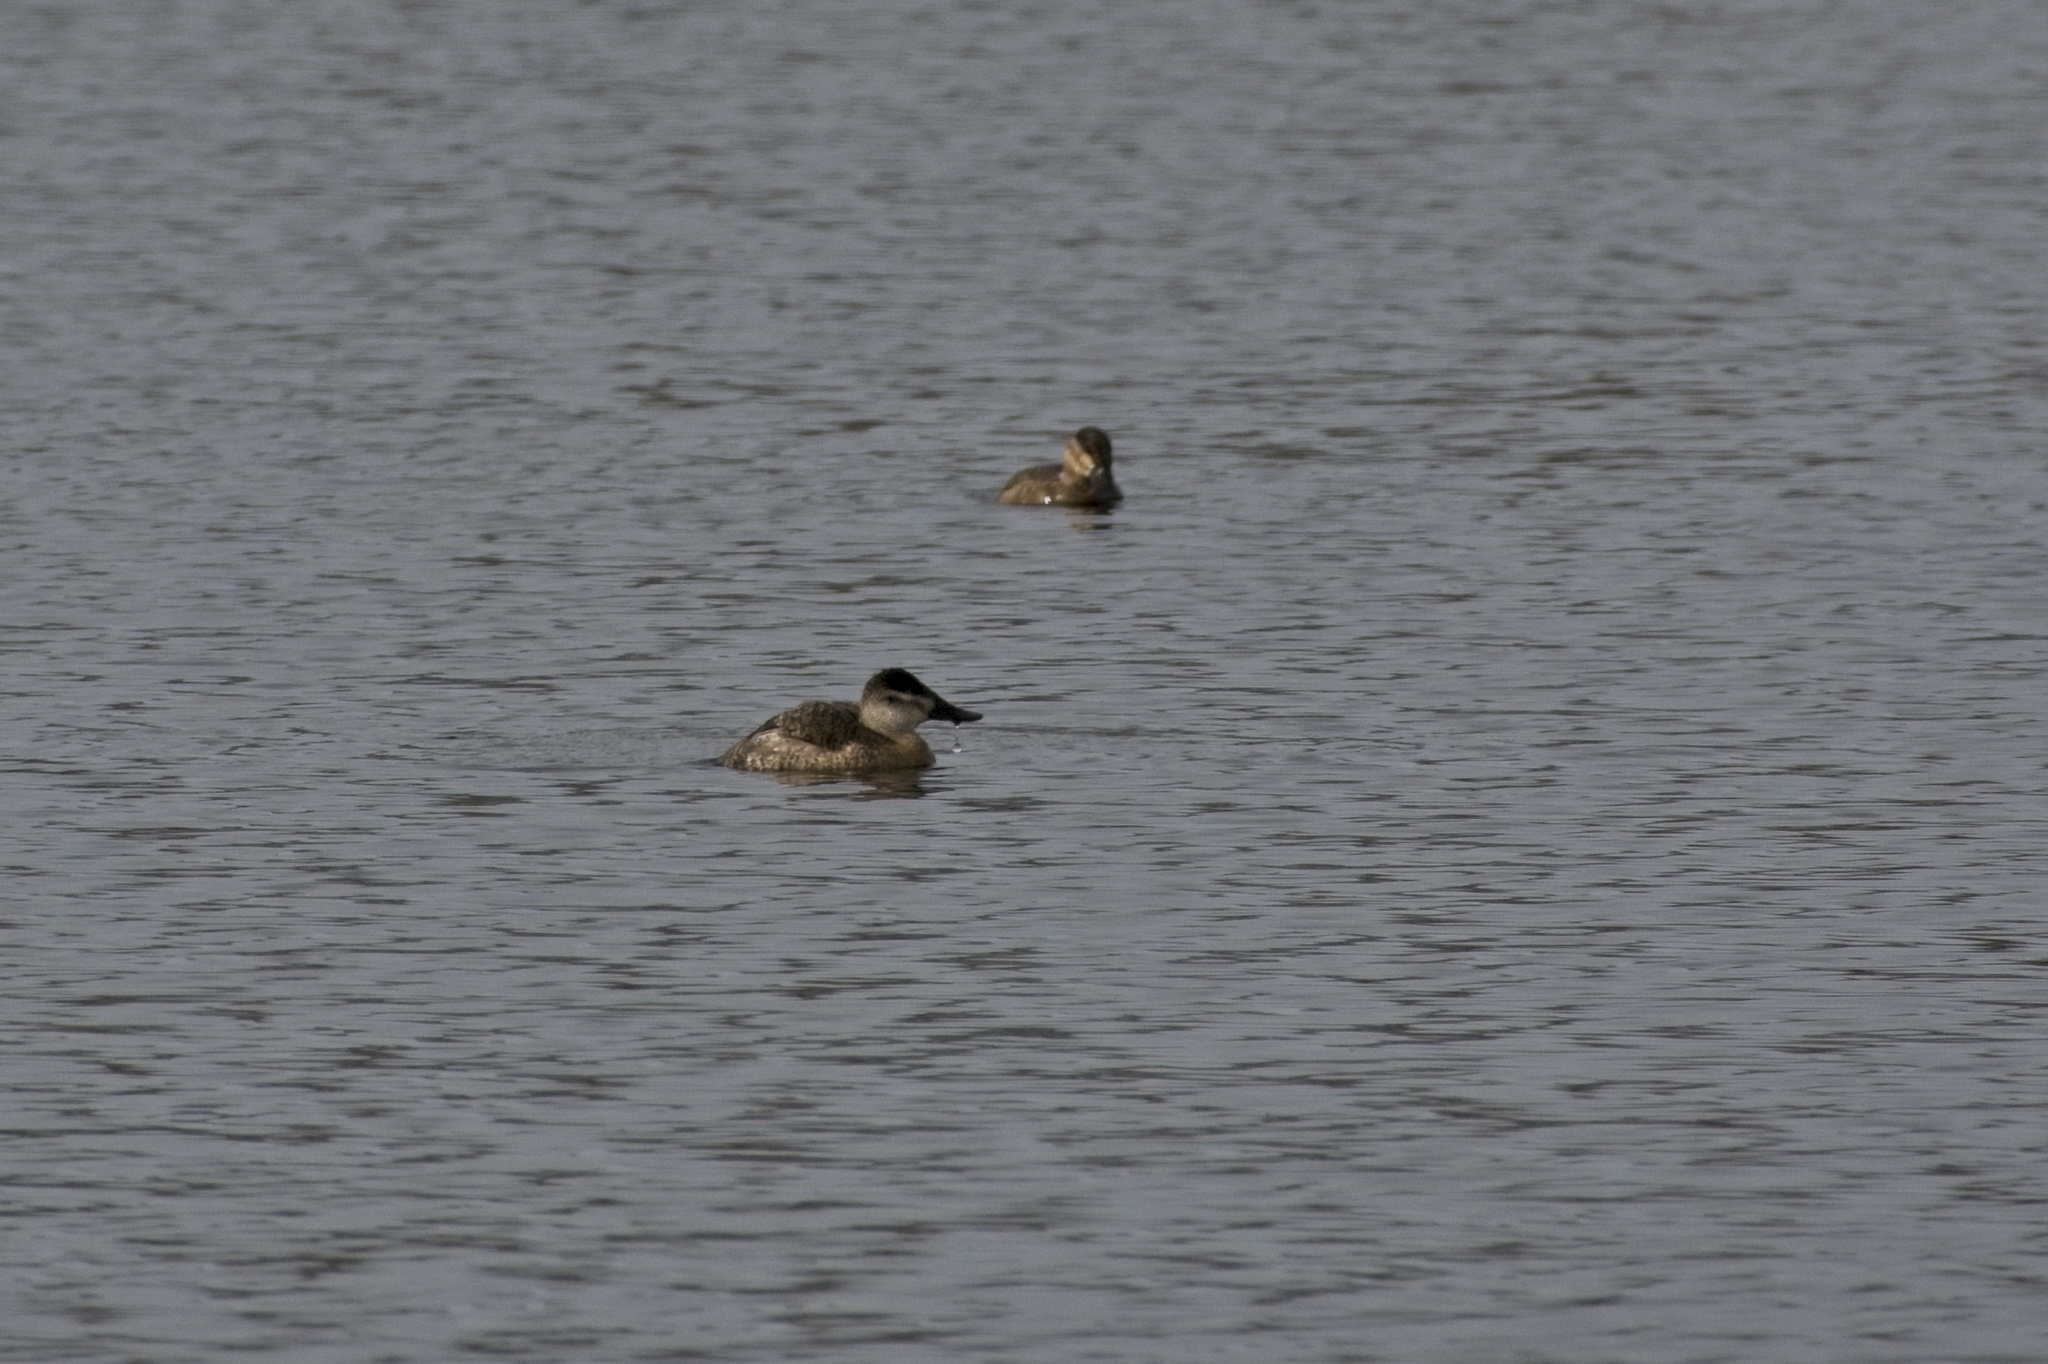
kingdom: Animalia
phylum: Chordata
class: Aves
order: Anseriformes
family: Anatidae
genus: Oxyura
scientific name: Oxyura jamaicensis
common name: Ruddy duck
